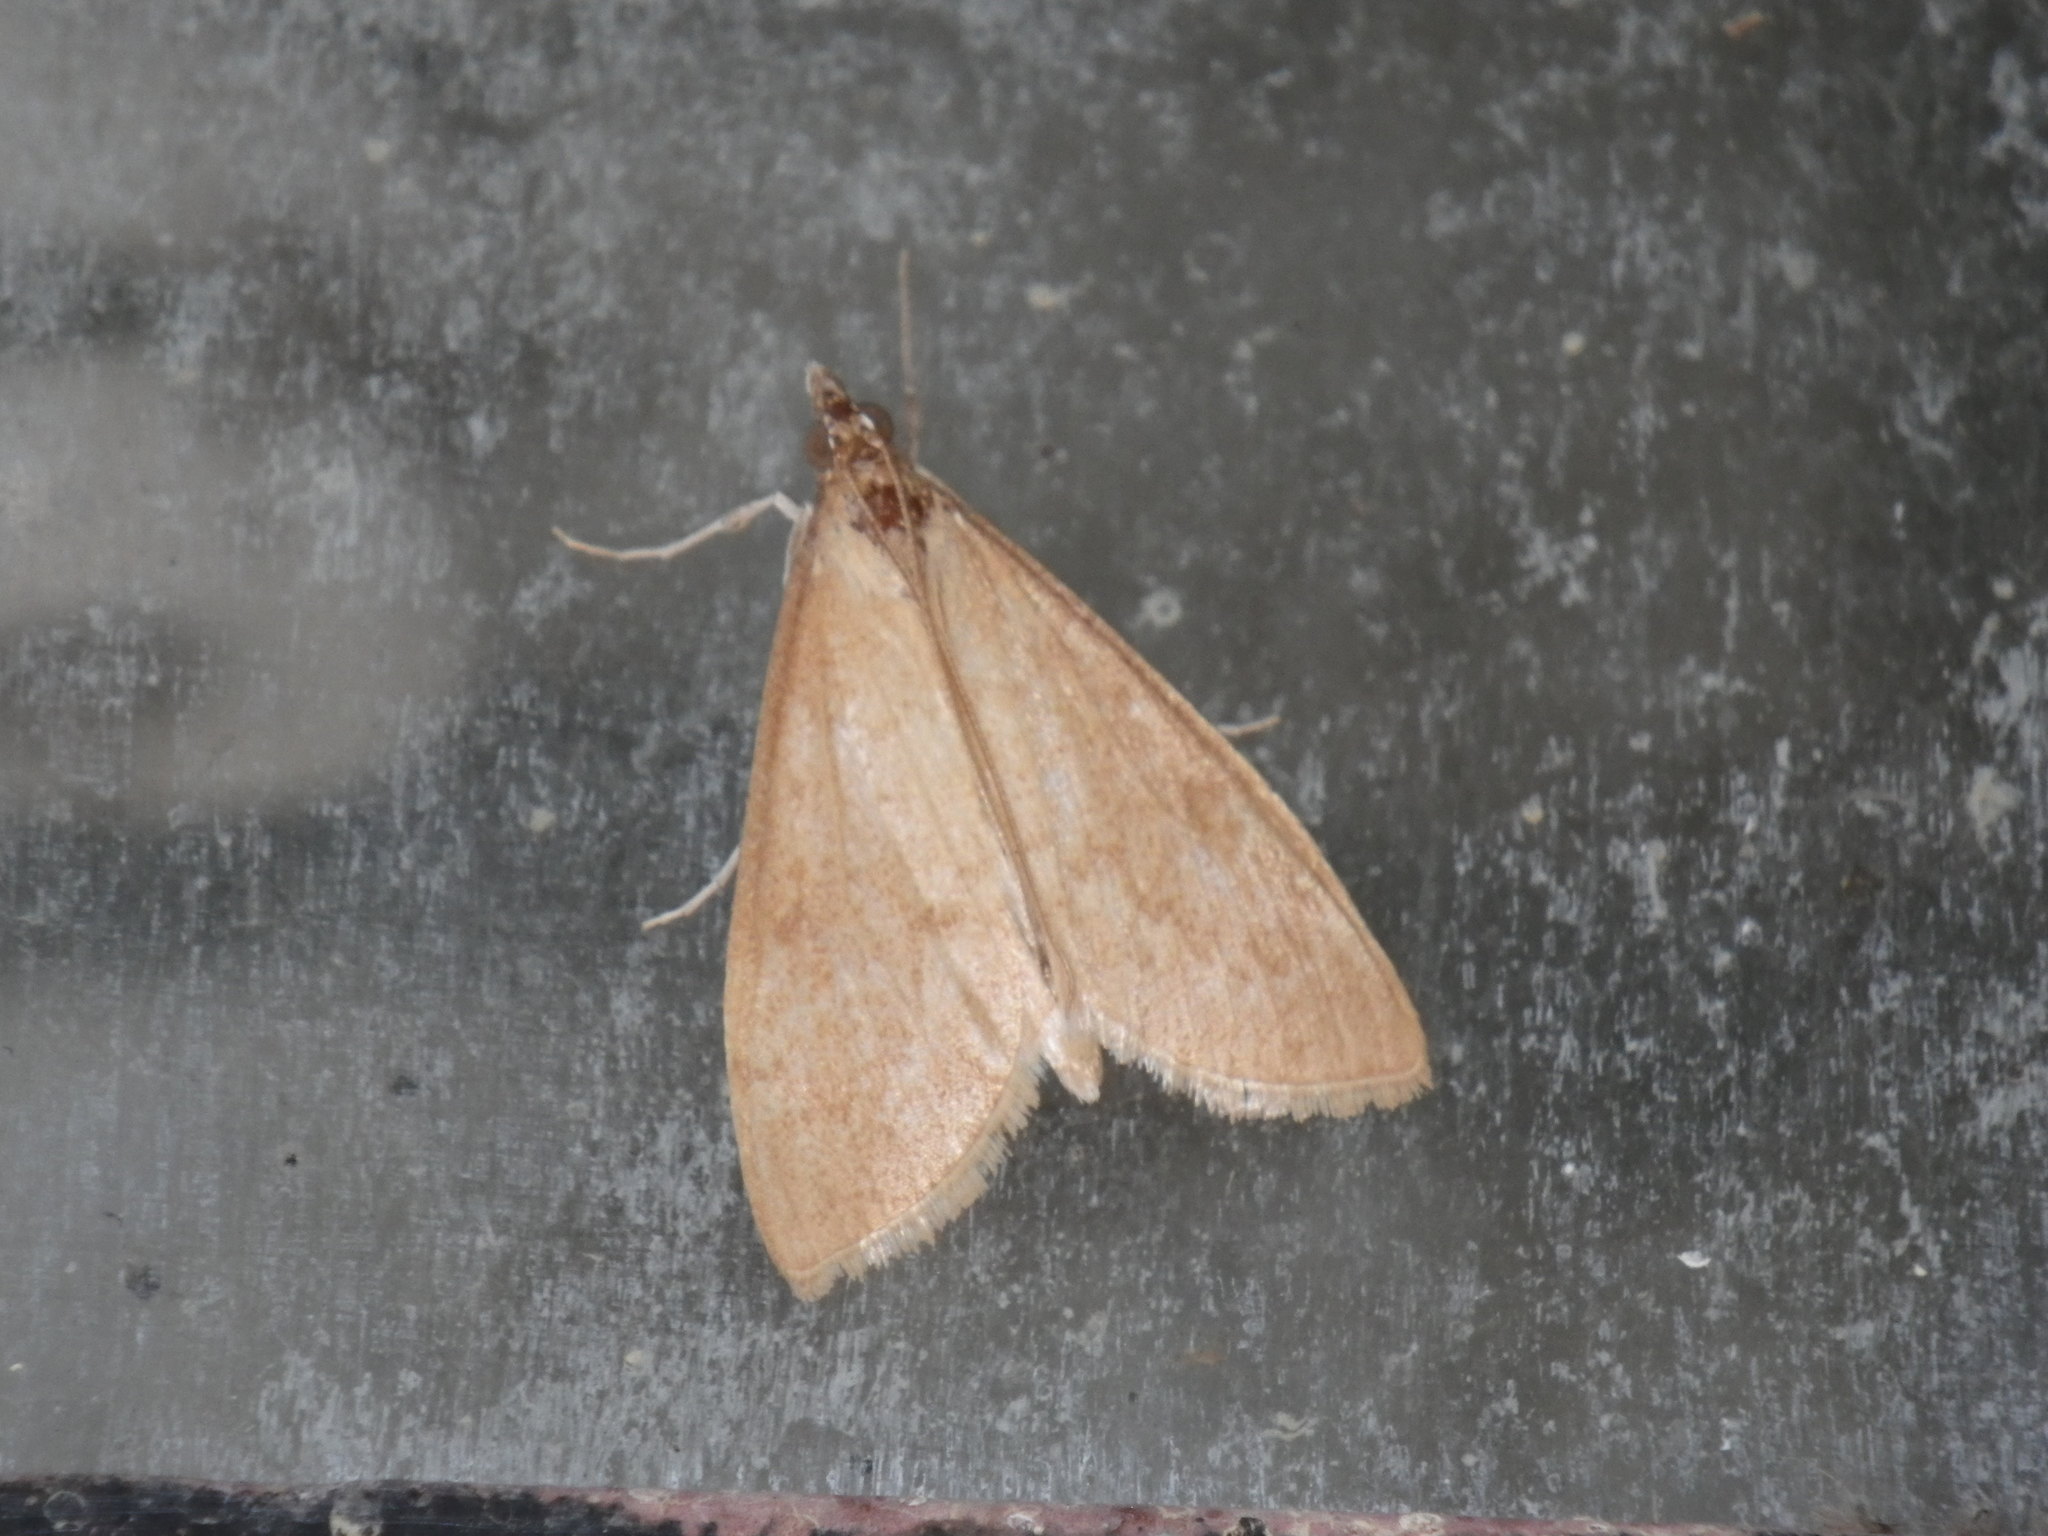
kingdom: Animalia
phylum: Arthropoda
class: Insecta
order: Lepidoptera
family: Crambidae
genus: Uresiphita
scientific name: Uresiphita reversalis
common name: Genista broom moth
